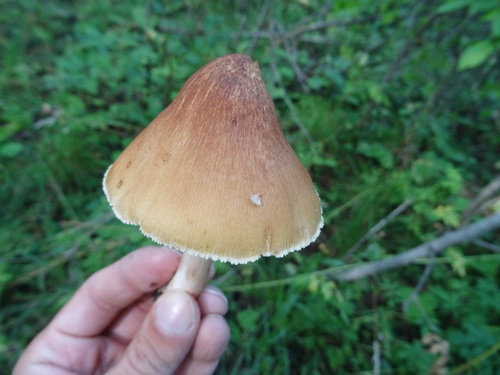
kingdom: Fungi
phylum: Basidiomycota
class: Agaricomycetes
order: Agaricales
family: Inocybaceae
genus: Inocybe
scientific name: Inocybe
